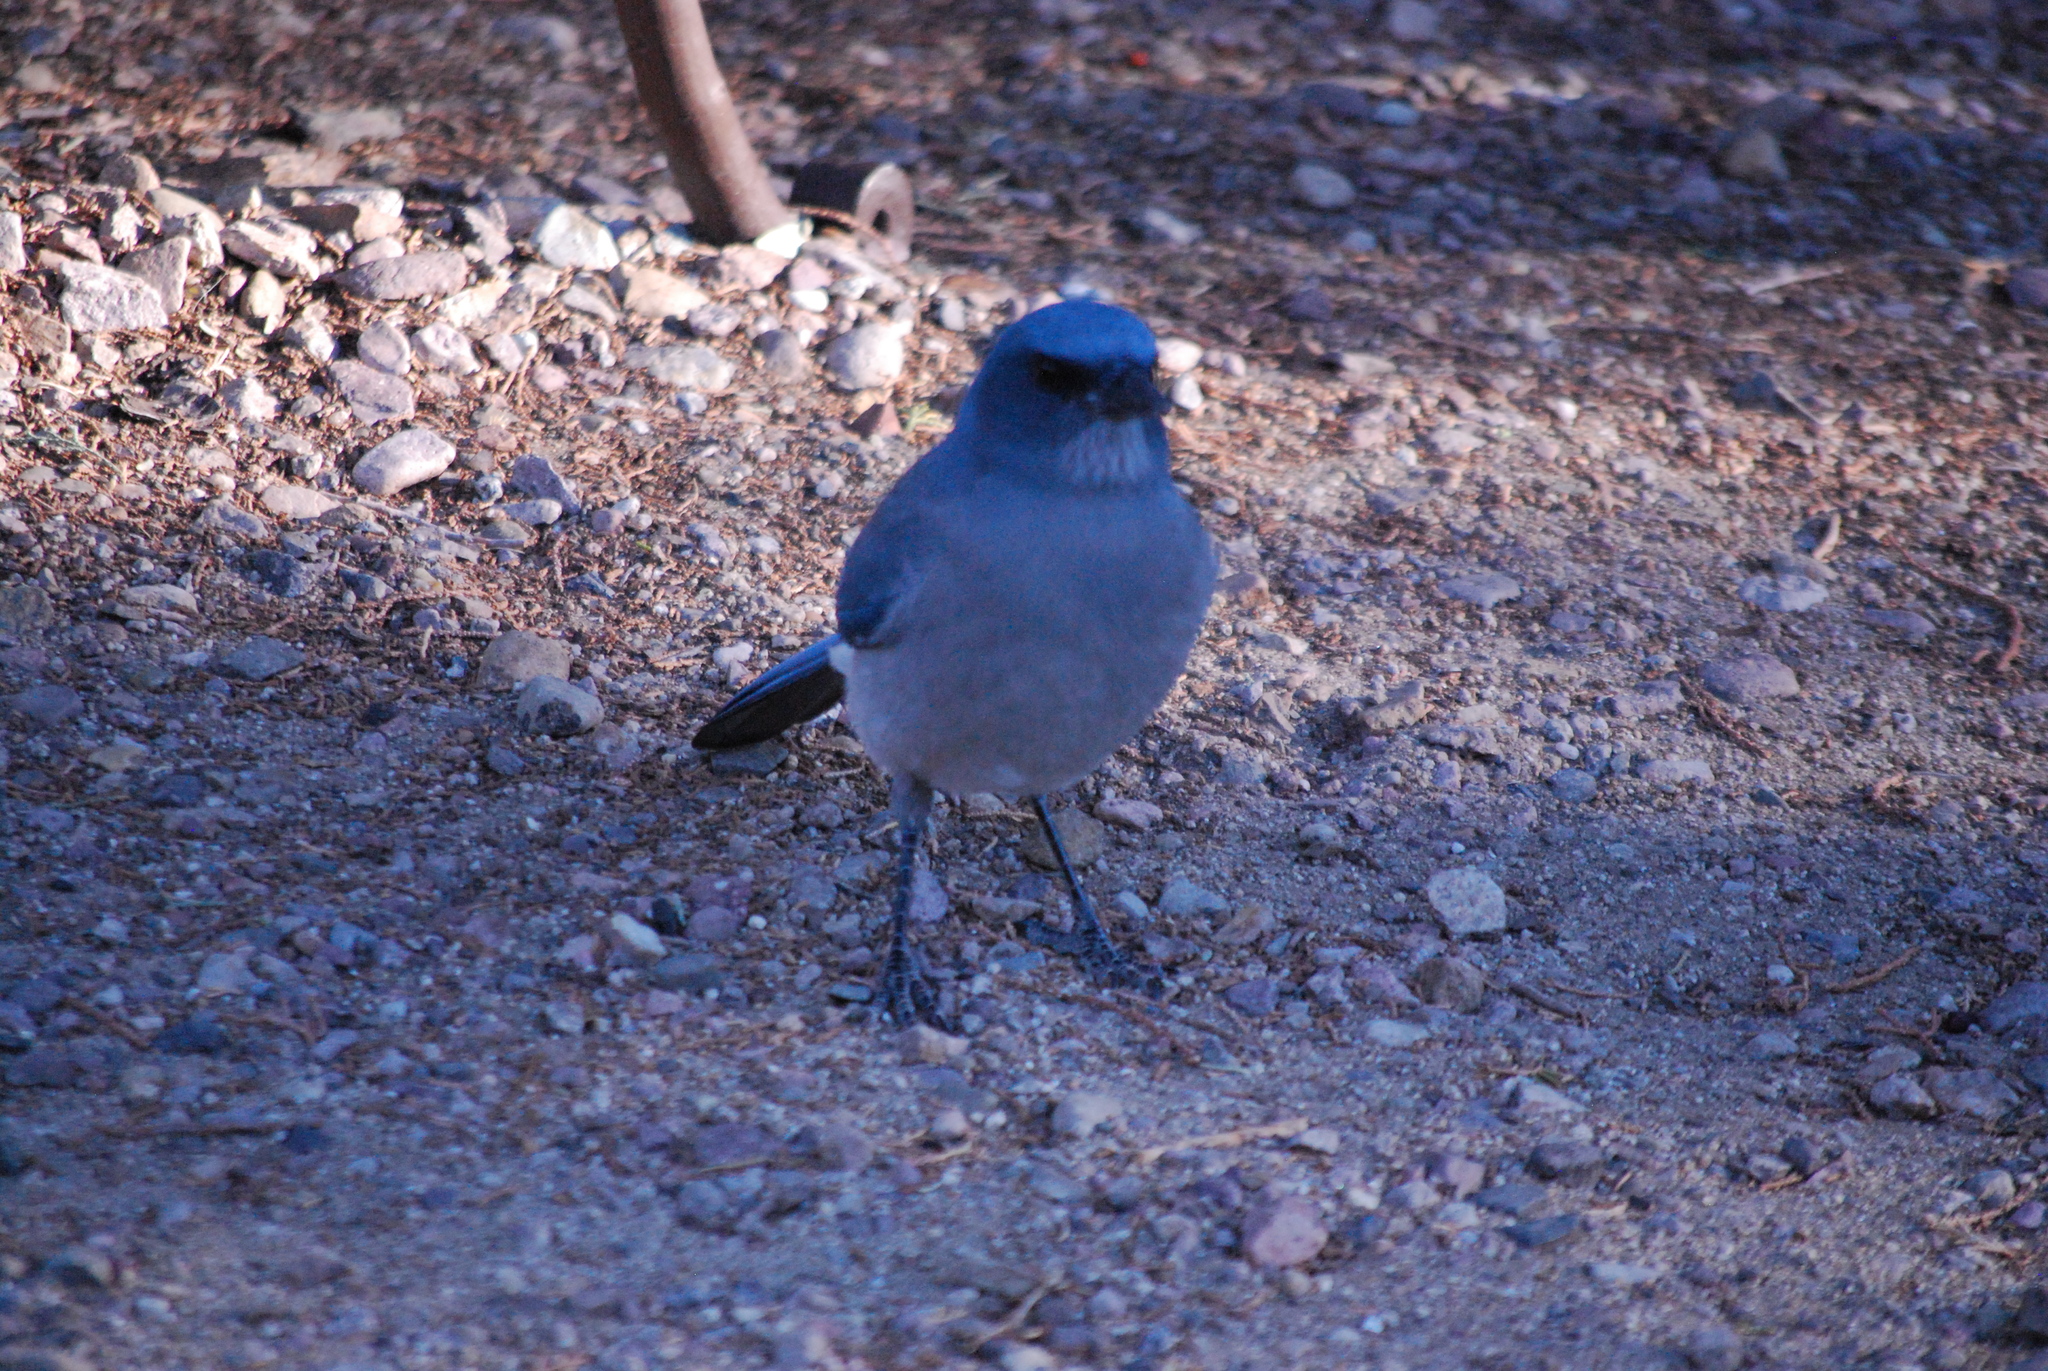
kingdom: Animalia
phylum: Chordata
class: Aves
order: Passeriformes
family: Corvidae
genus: Aphelocoma
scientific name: Aphelocoma wollweberi
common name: Mexican jay
